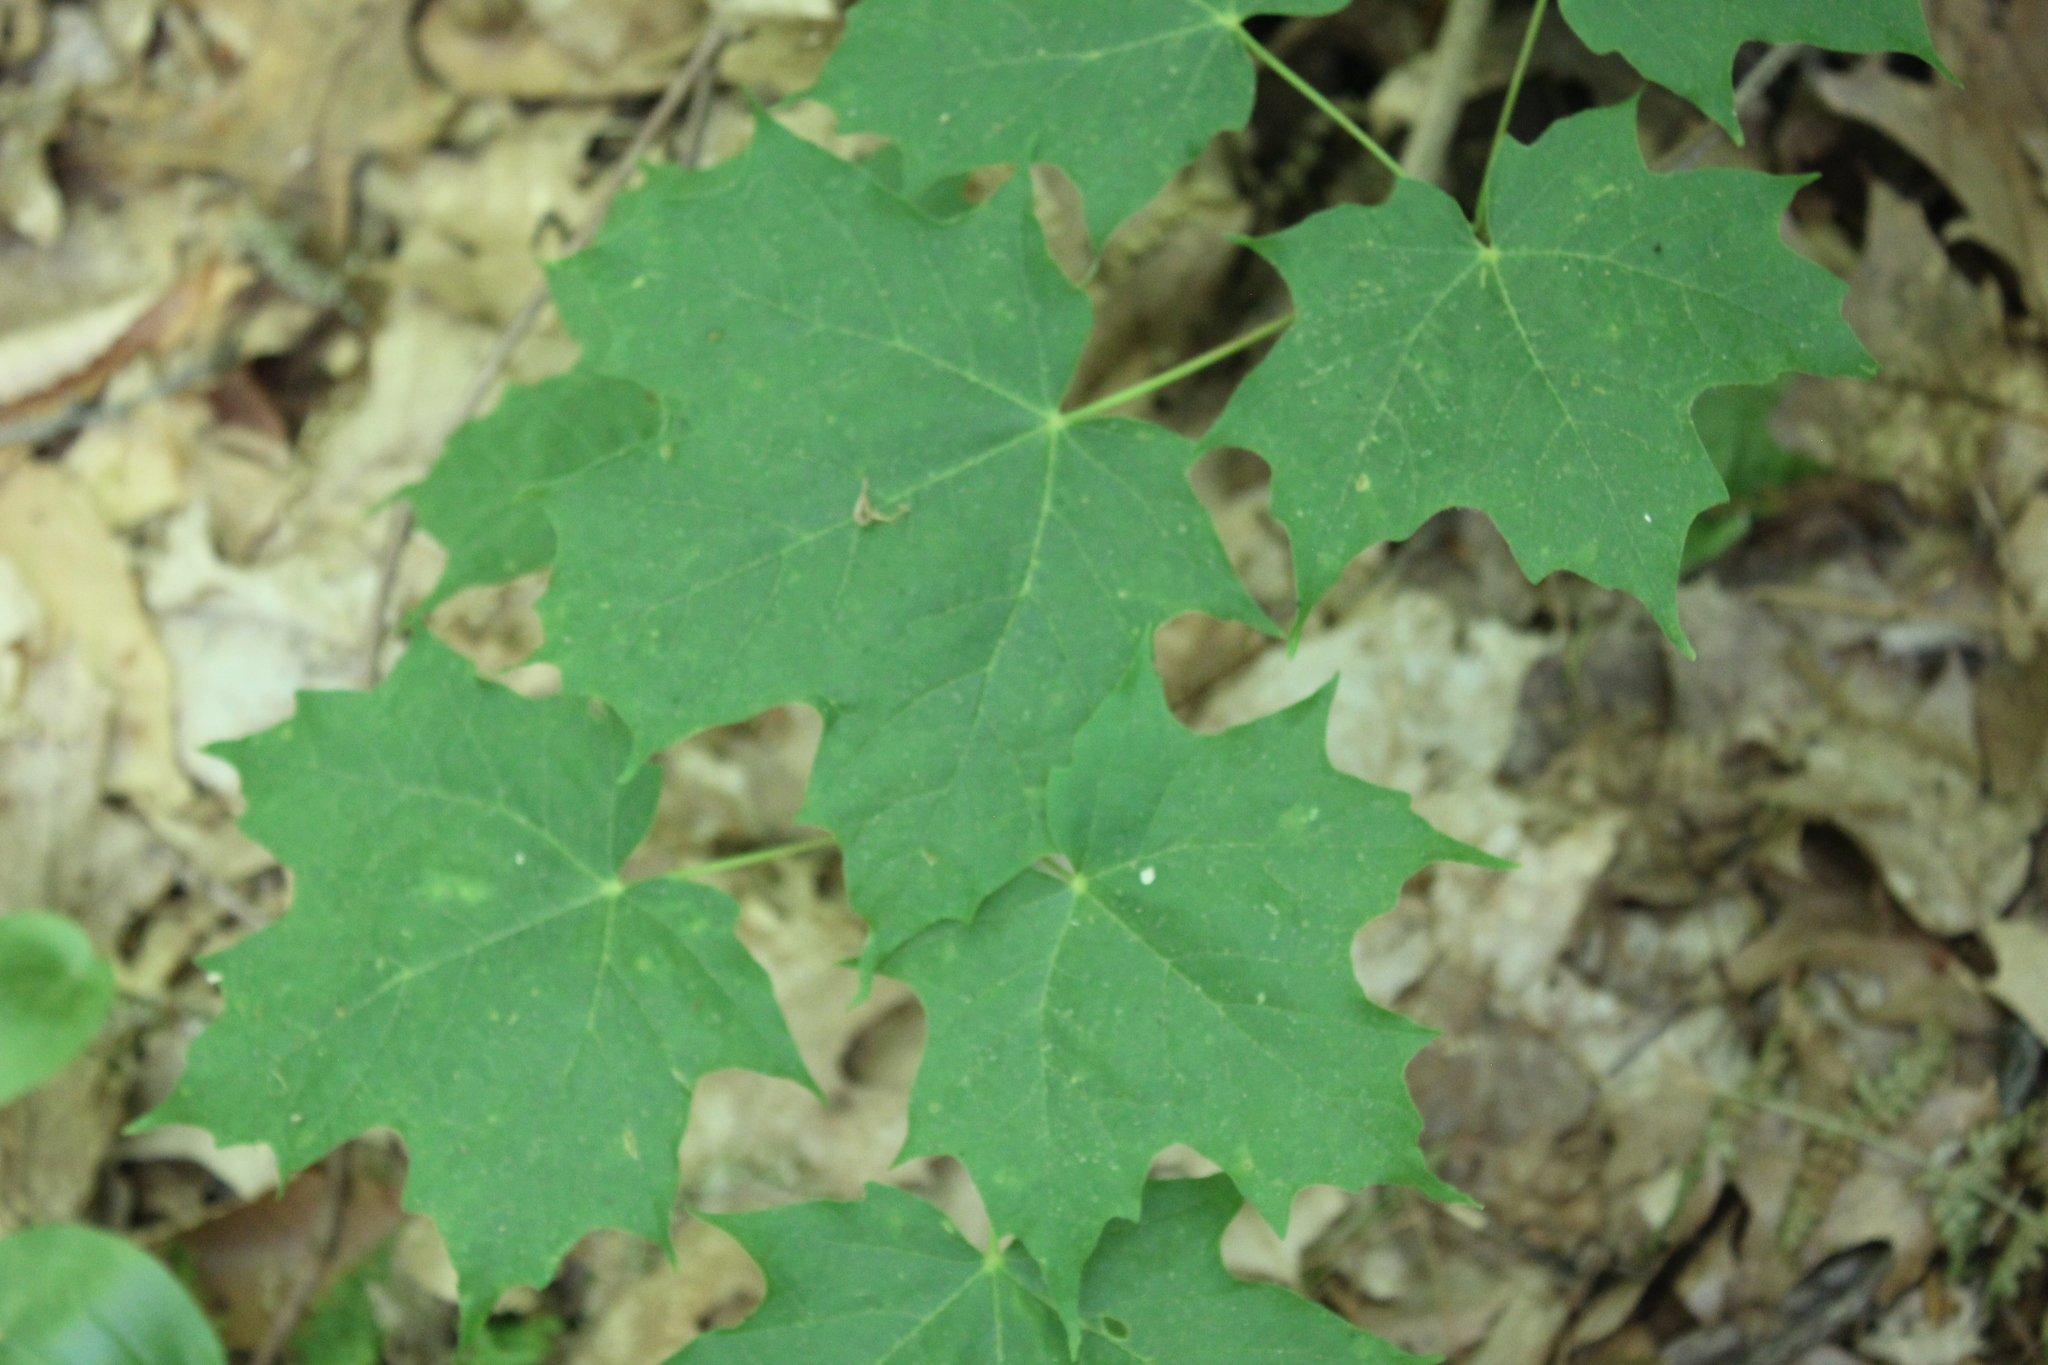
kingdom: Plantae
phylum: Tracheophyta
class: Magnoliopsida
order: Sapindales
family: Sapindaceae
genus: Acer
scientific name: Acer saccharum
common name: Sugar maple
